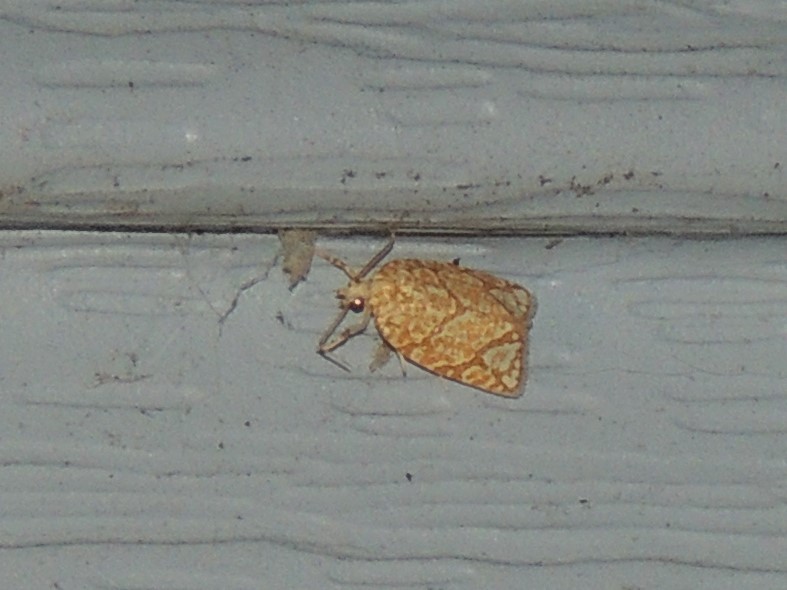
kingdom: Animalia
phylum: Arthropoda
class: Insecta
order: Lepidoptera
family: Tortricidae
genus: Argyrotaenia
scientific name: Argyrotaenia quercifoliana
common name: Yellow-winged oak leafroller moth
